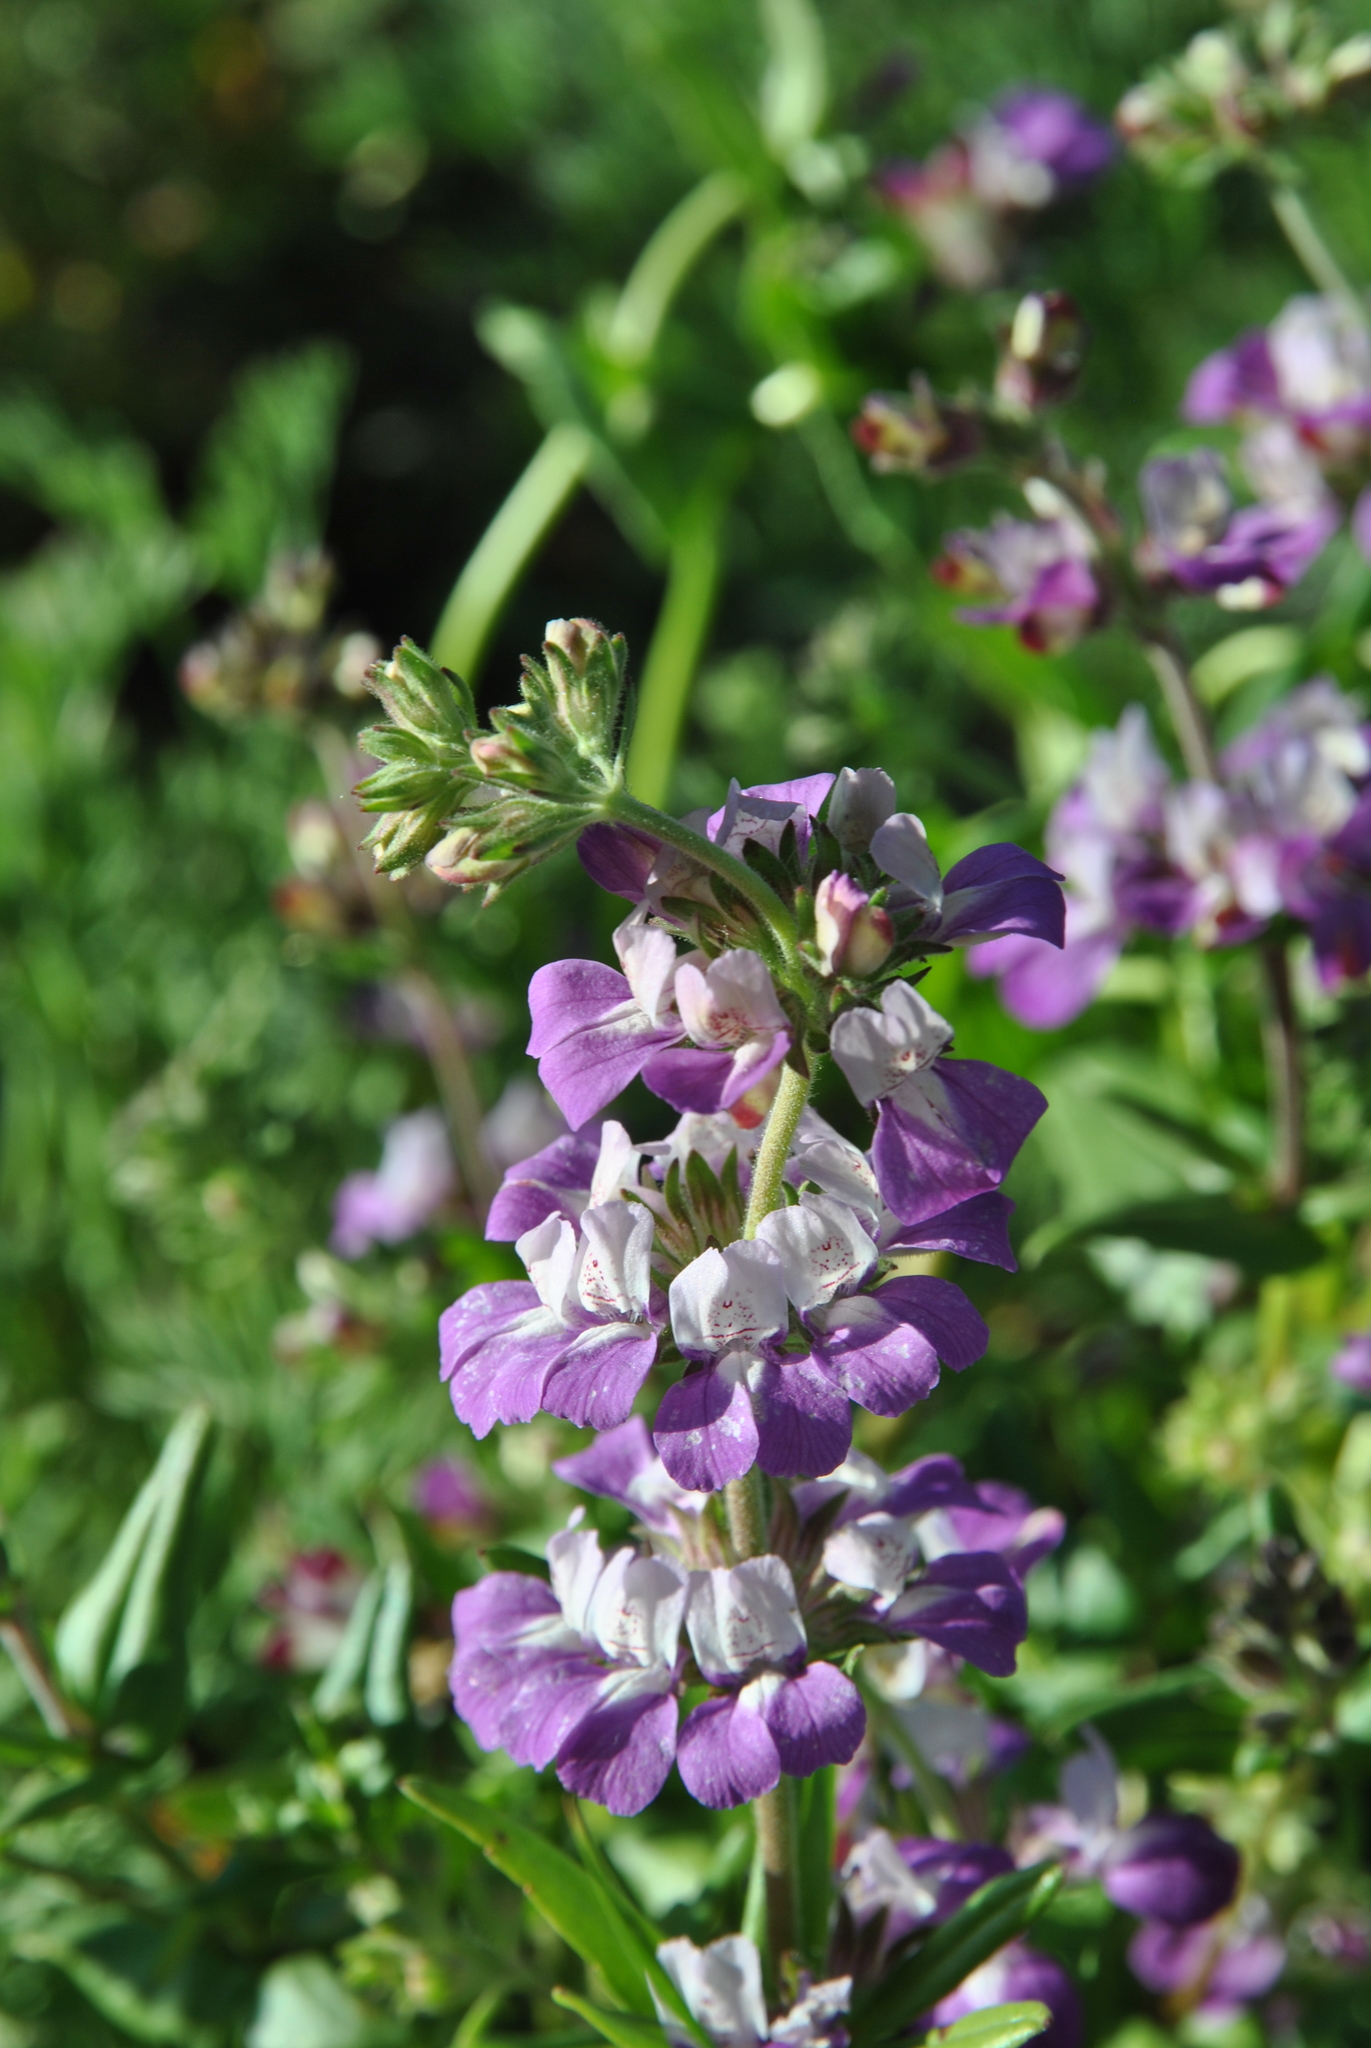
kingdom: Plantae
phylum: Tracheophyta
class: Magnoliopsida
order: Lamiales
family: Plantaginaceae
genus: Collinsia
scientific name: Collinsia heterophylla
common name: Chinese-houses
